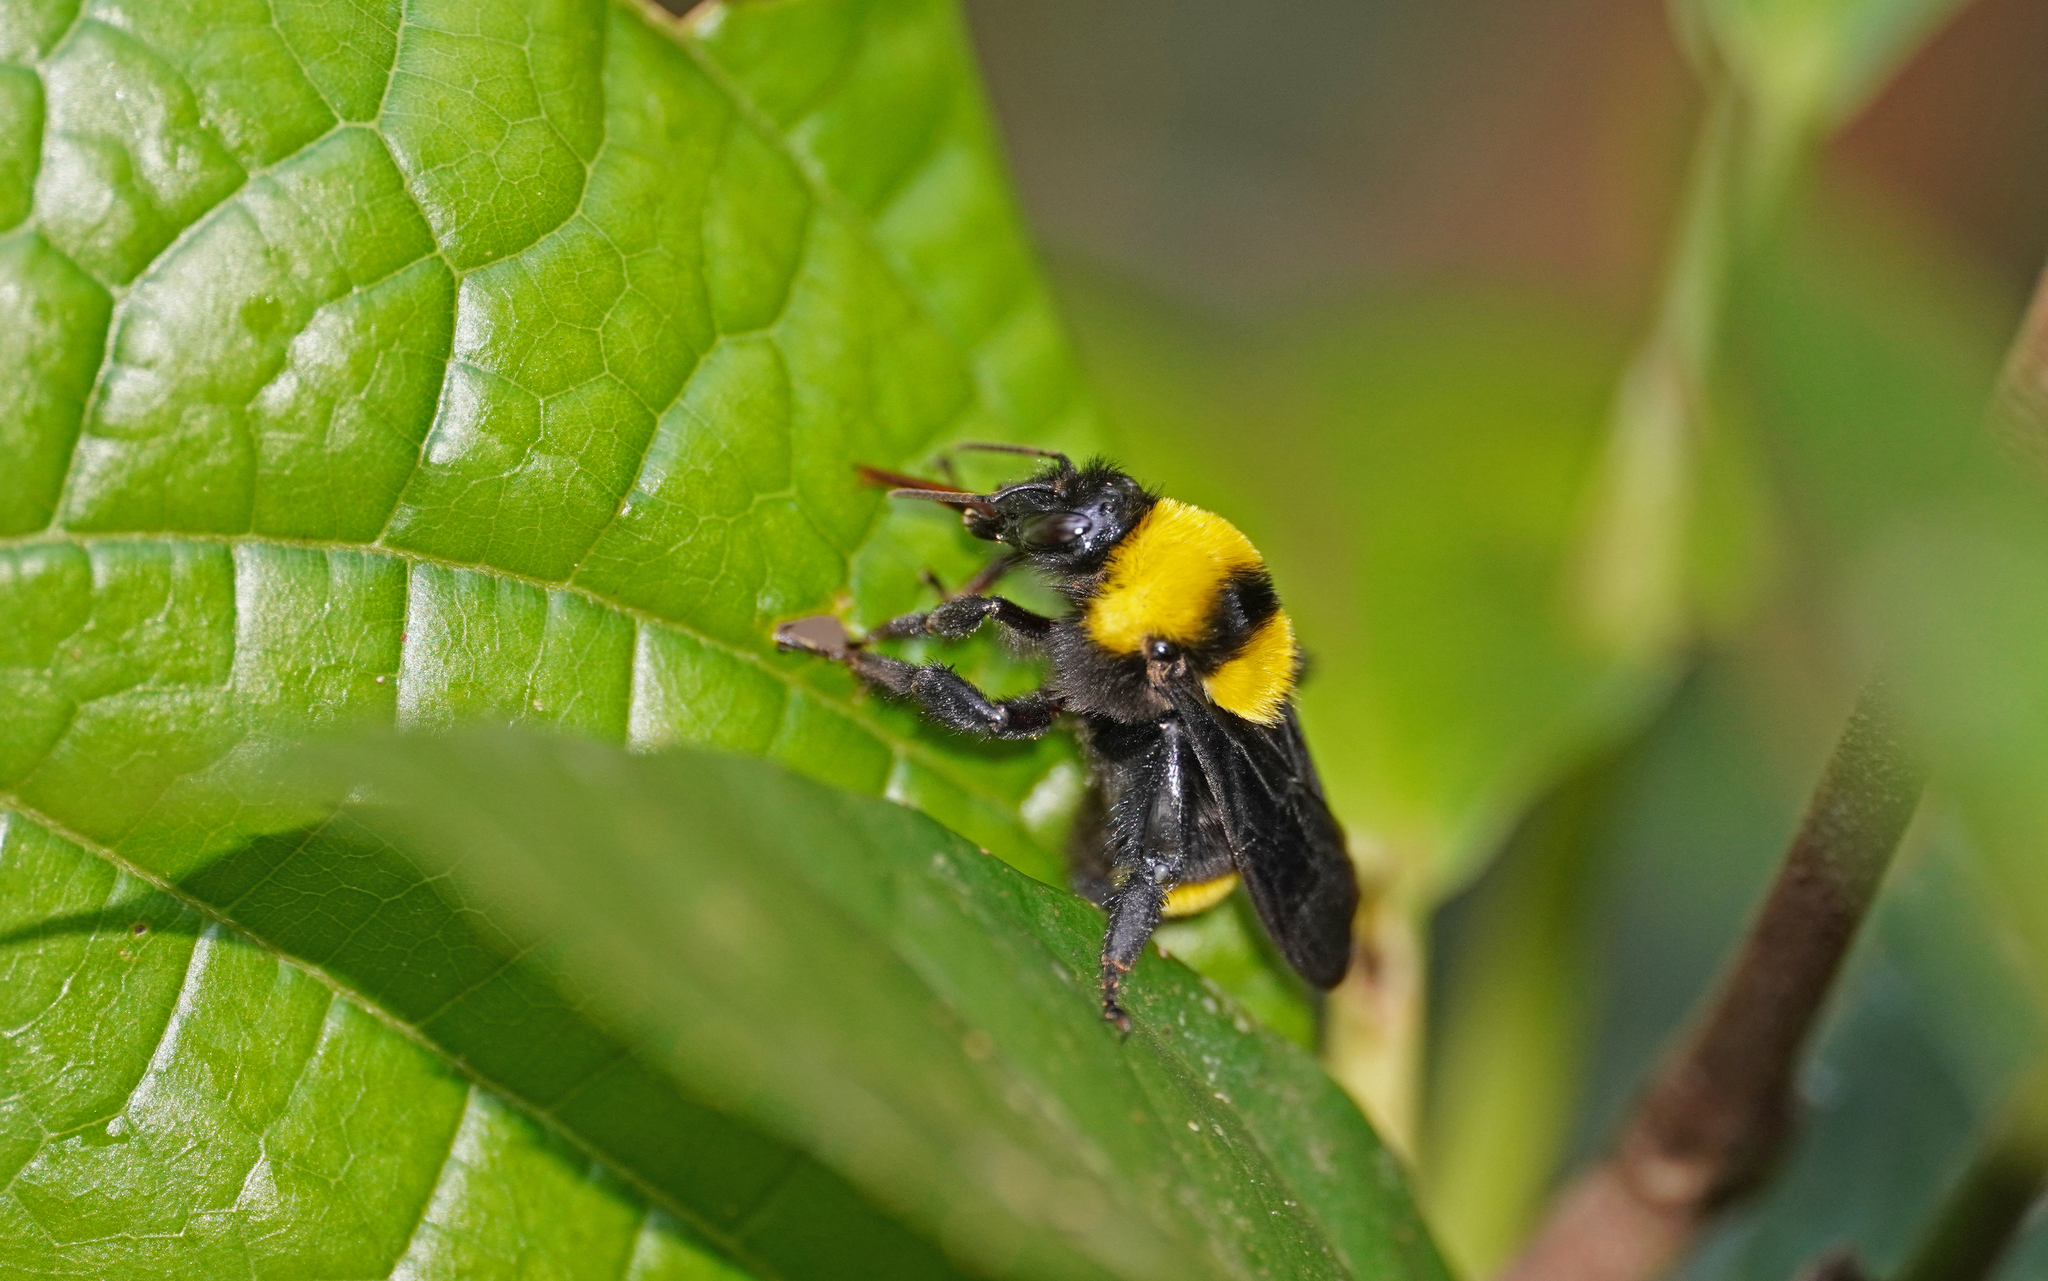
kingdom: Animalia
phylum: Arthropoda
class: Insecta
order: Hymenoptera
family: Apidae
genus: Bombus
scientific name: Bombus transversalis
